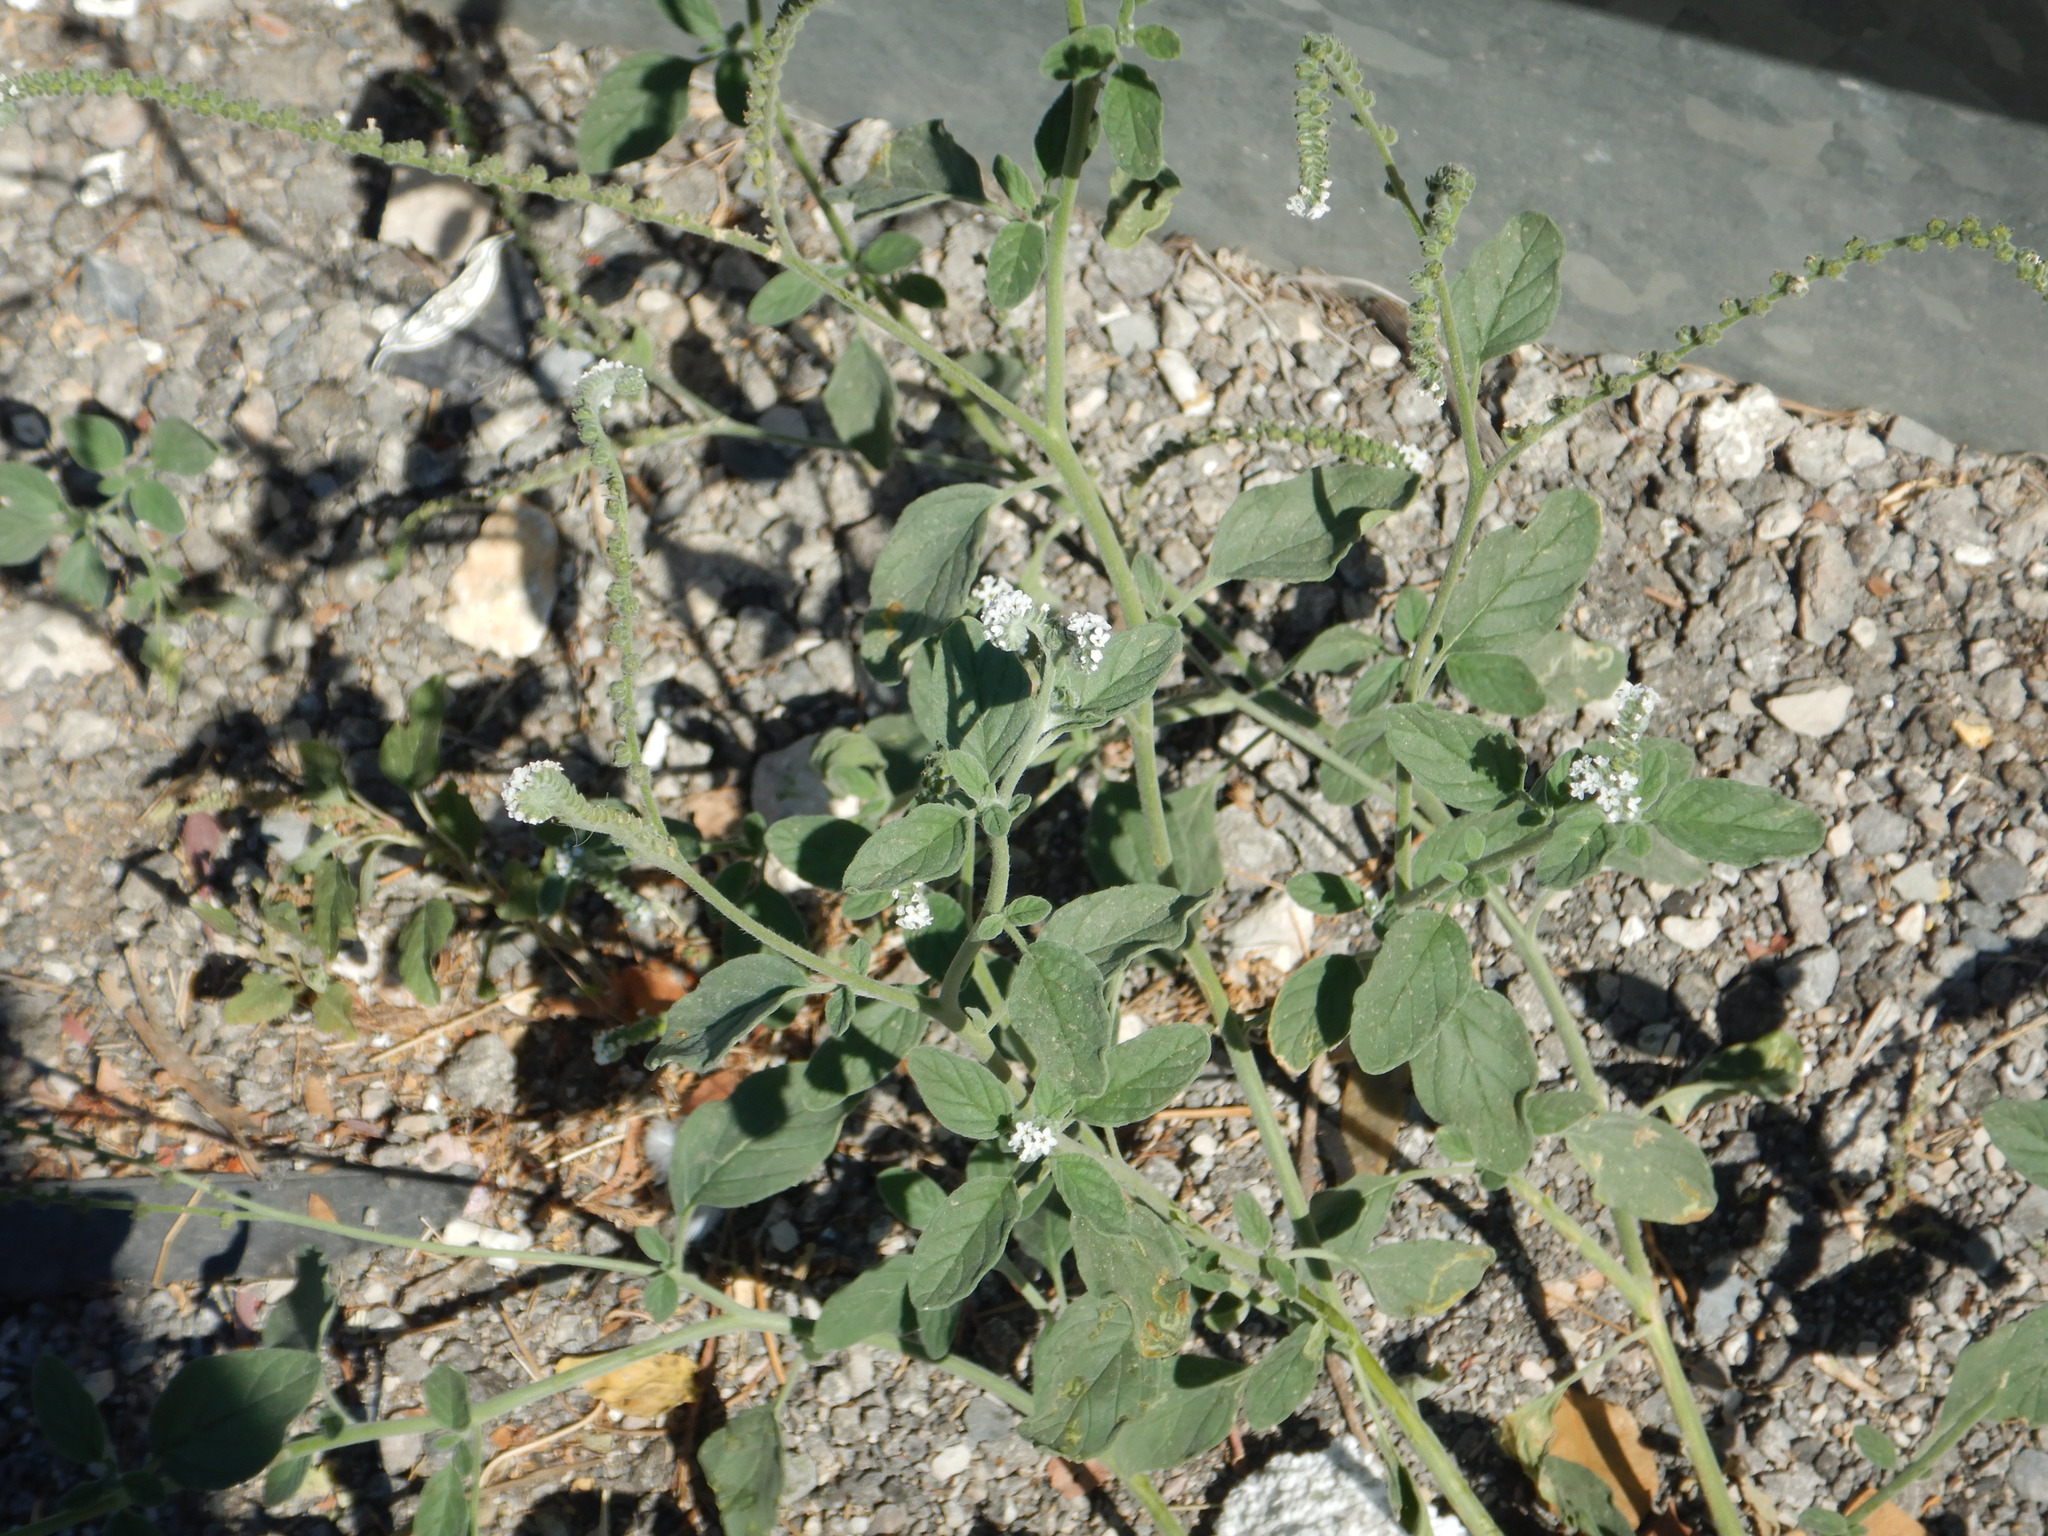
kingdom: Plantae
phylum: Tracheophyta
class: Magnoliopsida
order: Boraginales
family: Heliotropiaceae
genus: Heliotropium
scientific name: Heliotropium europaeum
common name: European heliotrope
